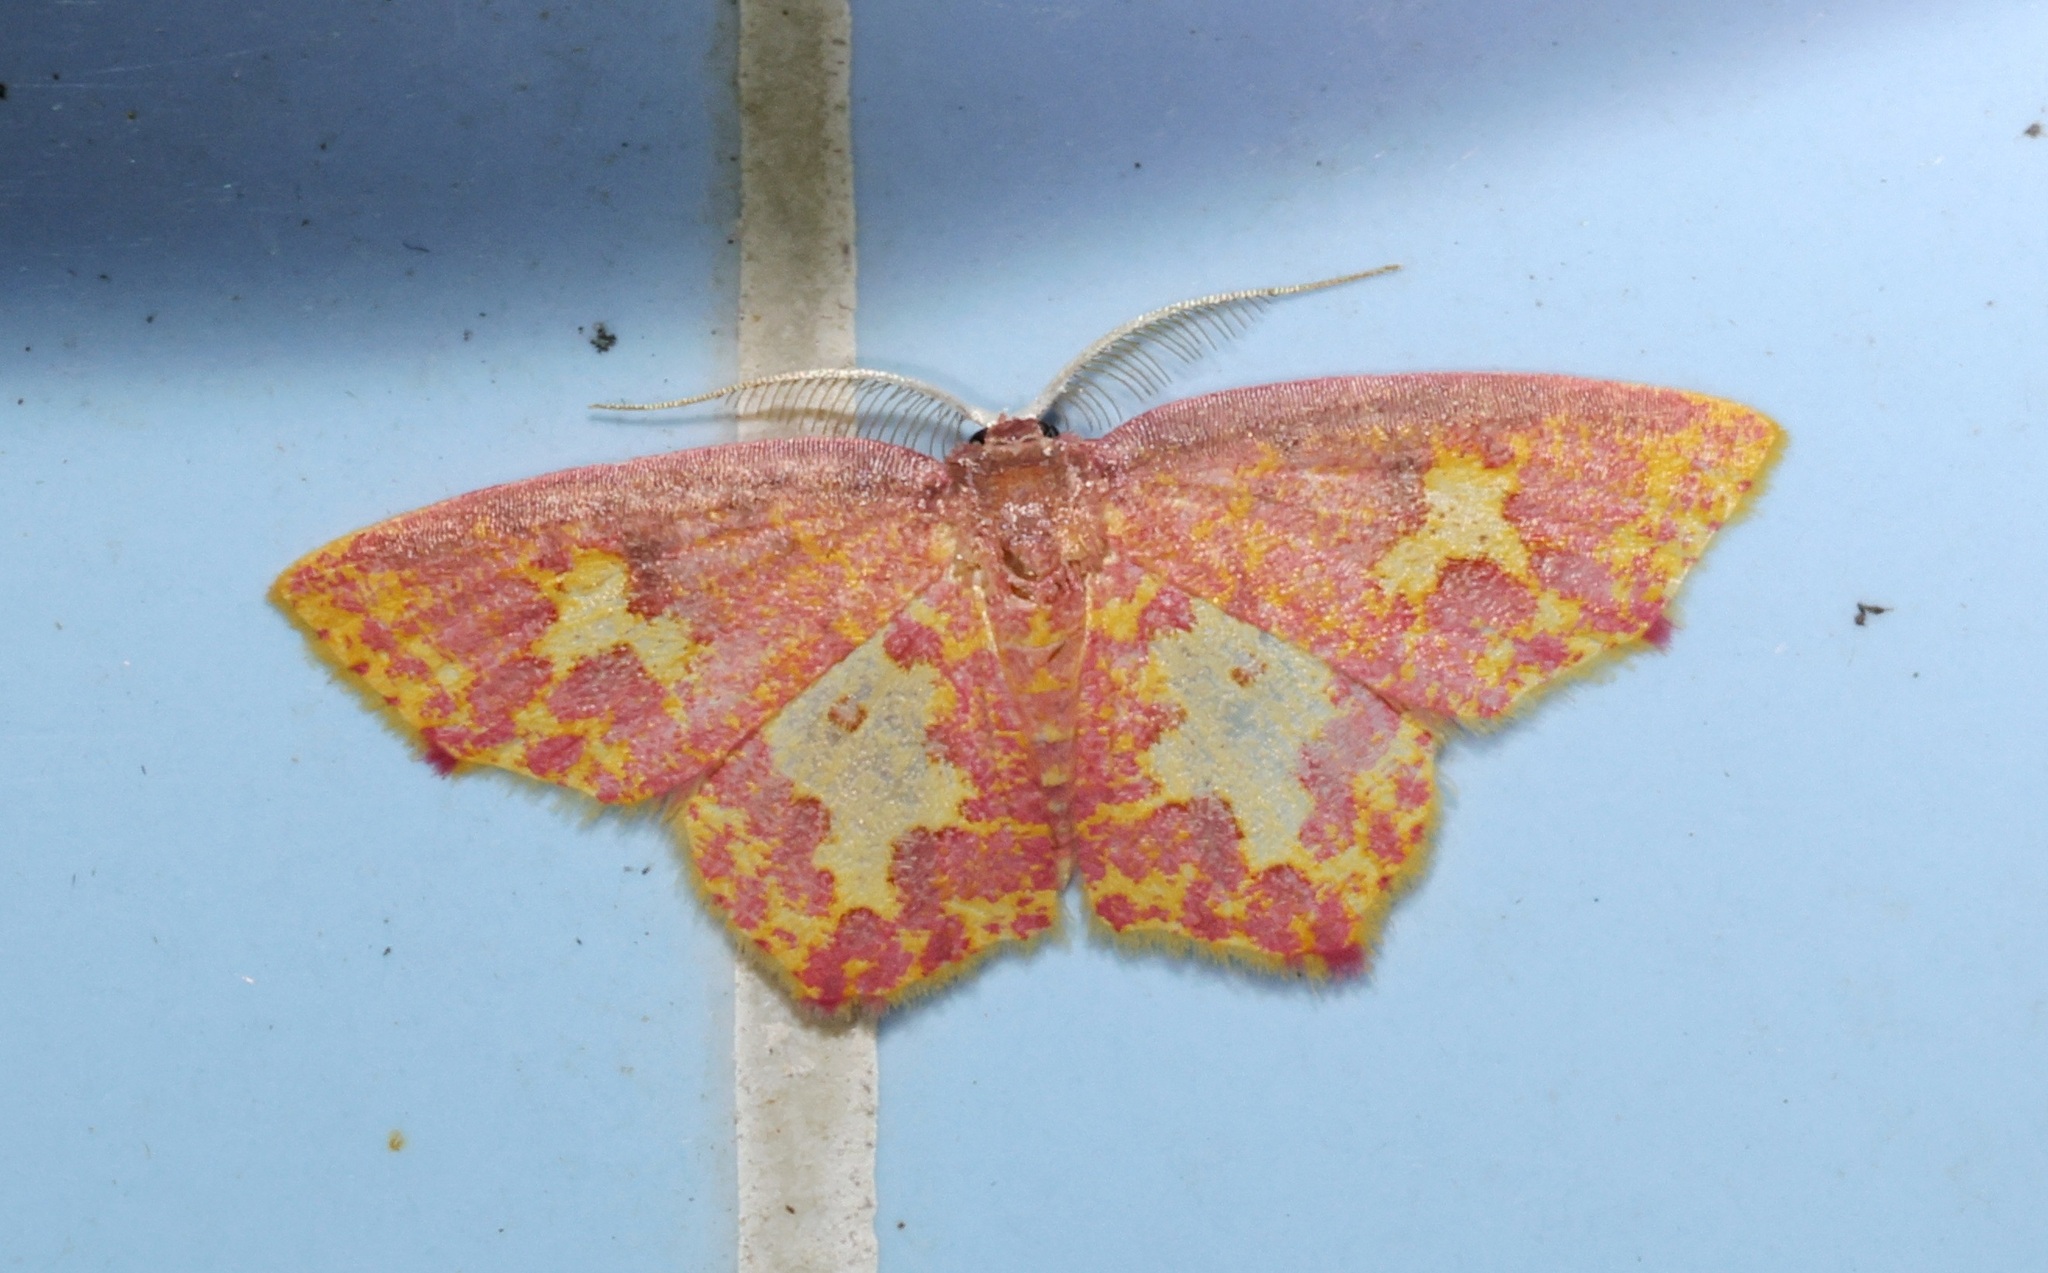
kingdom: Animalia
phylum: Arthropoda
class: Insecta
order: Lepidoptera
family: Geometridae
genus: Chrysocraspeda
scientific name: Chrysocraspeda faganaria
